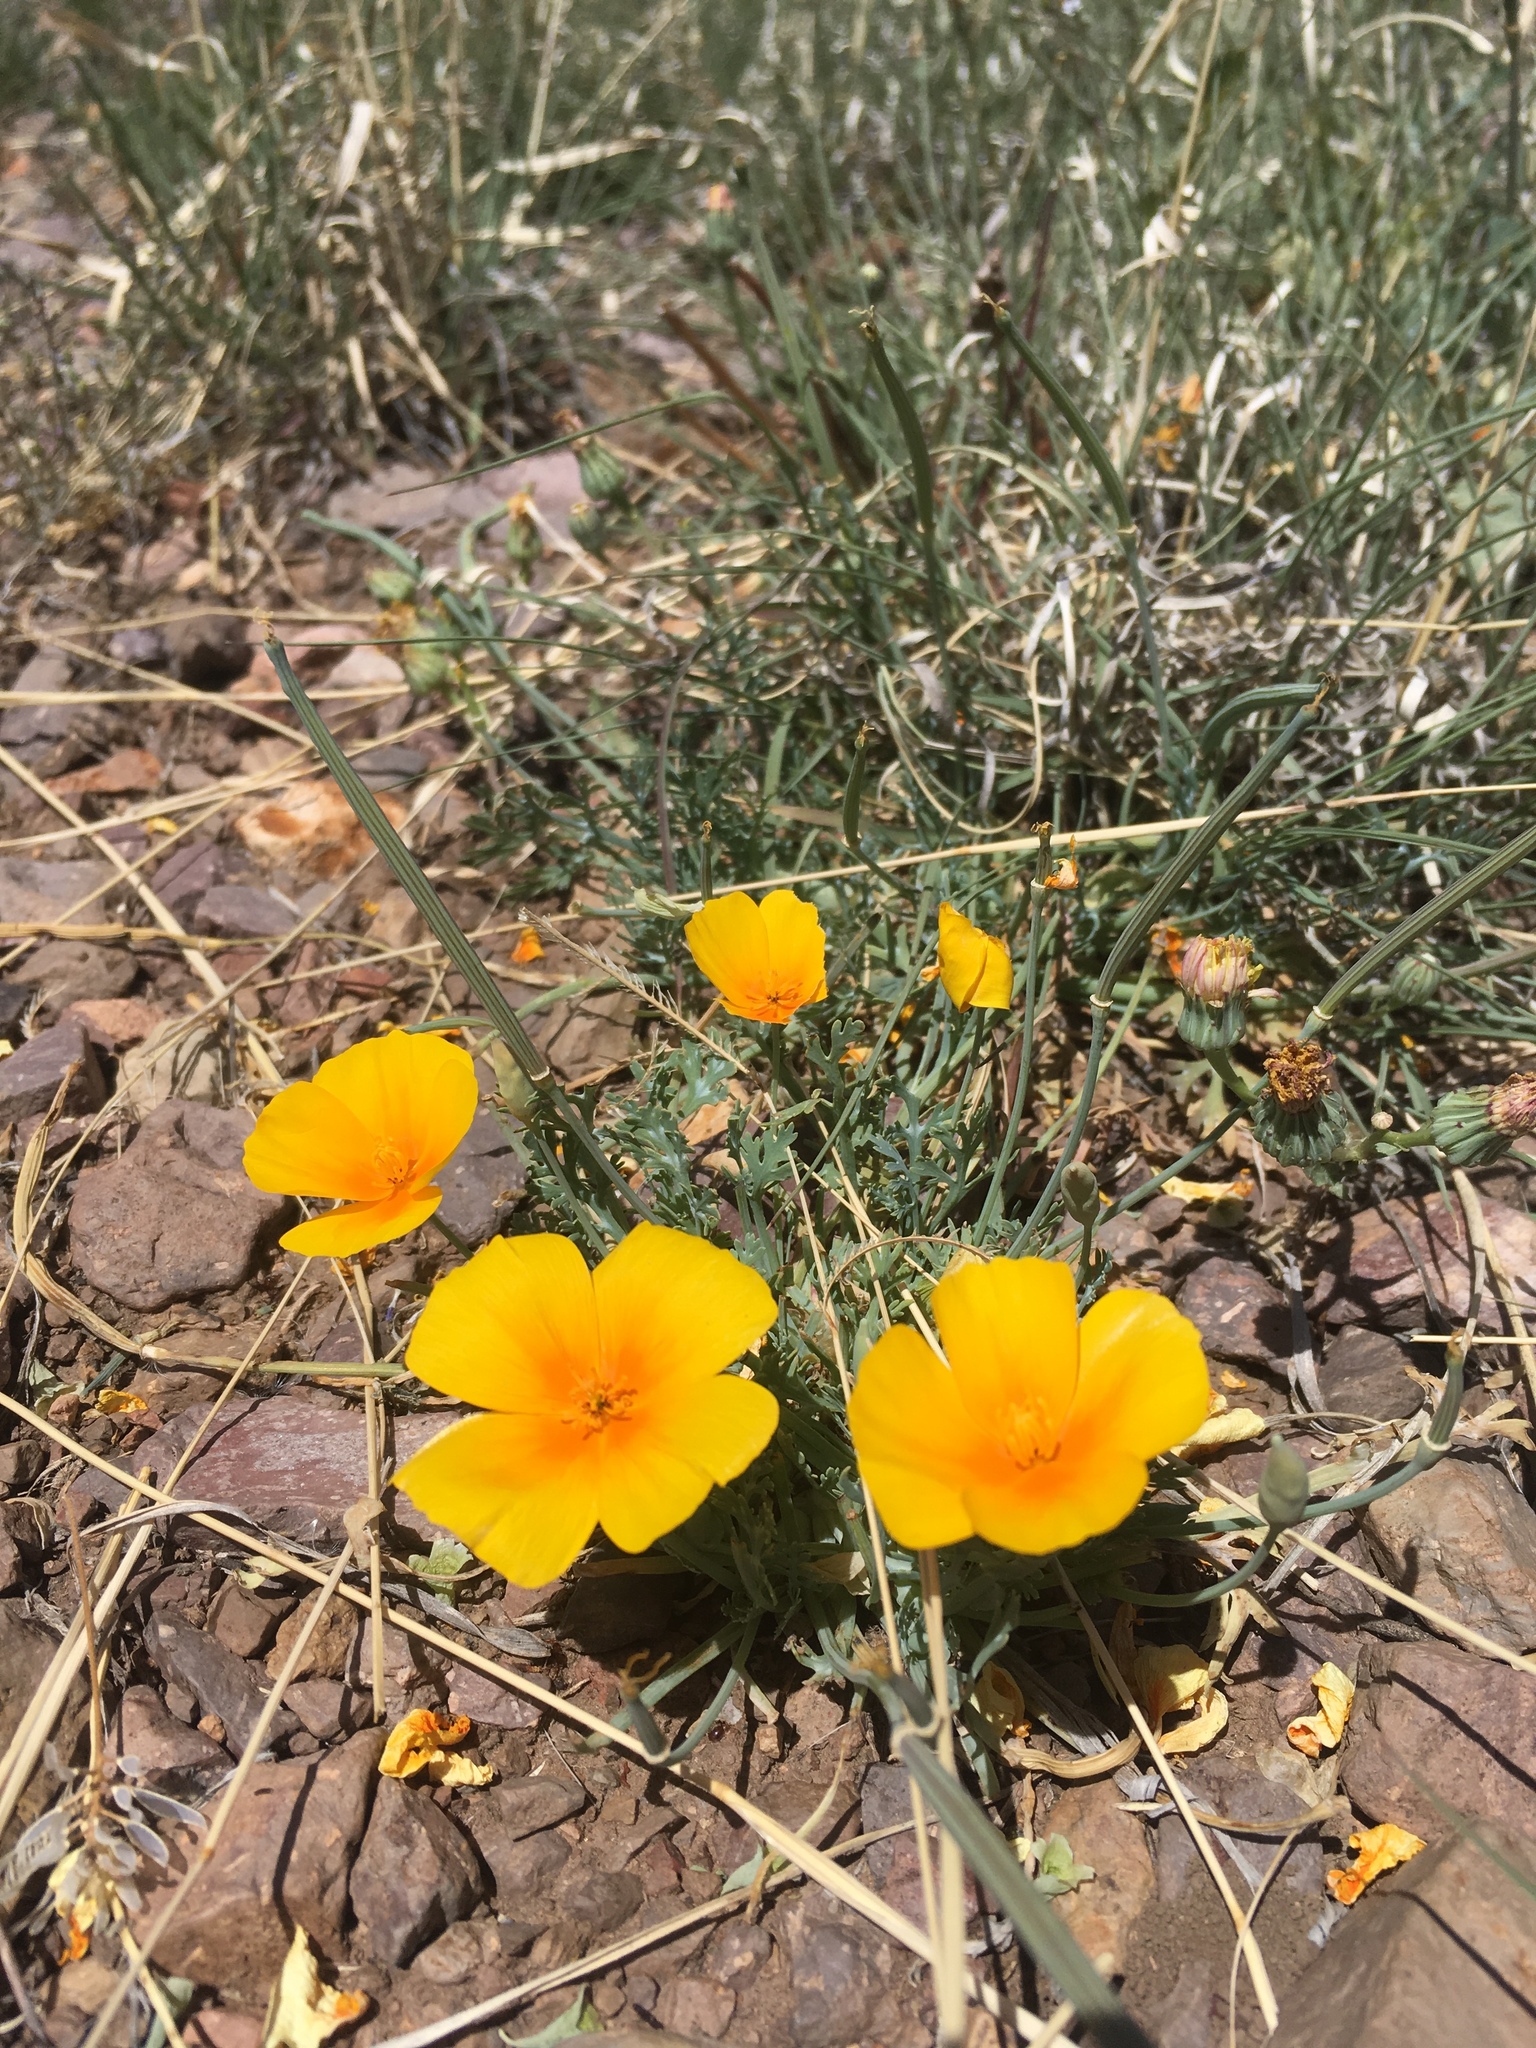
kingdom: Plantae
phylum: Tracheophyta
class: Magnoliopsida
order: Ranunculales
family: Papaveraceae
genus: Eschscholzia
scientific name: Eschscholzia californica
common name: California poppy
